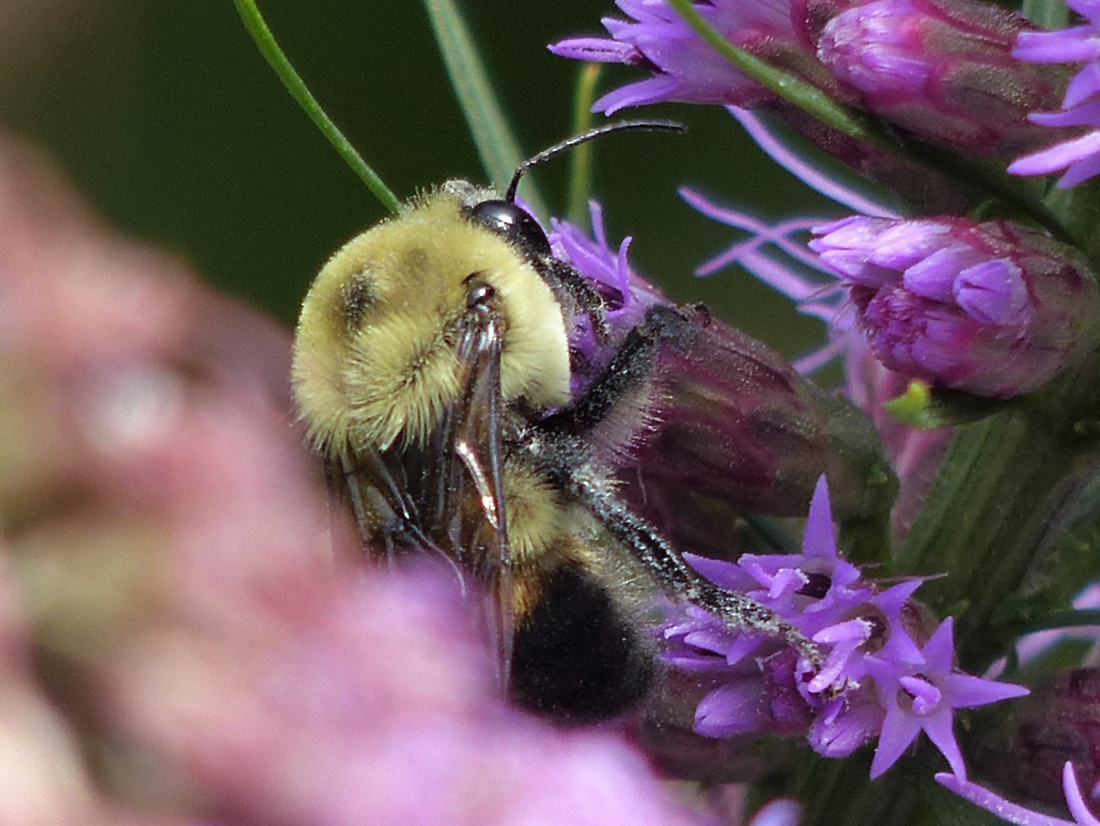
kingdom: Animalia
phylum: Arthropoda
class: Insecta
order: Hymenoptera
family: Apidae
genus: Bombus
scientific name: Bombus griseocollis
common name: Brown-belted bumble bee
